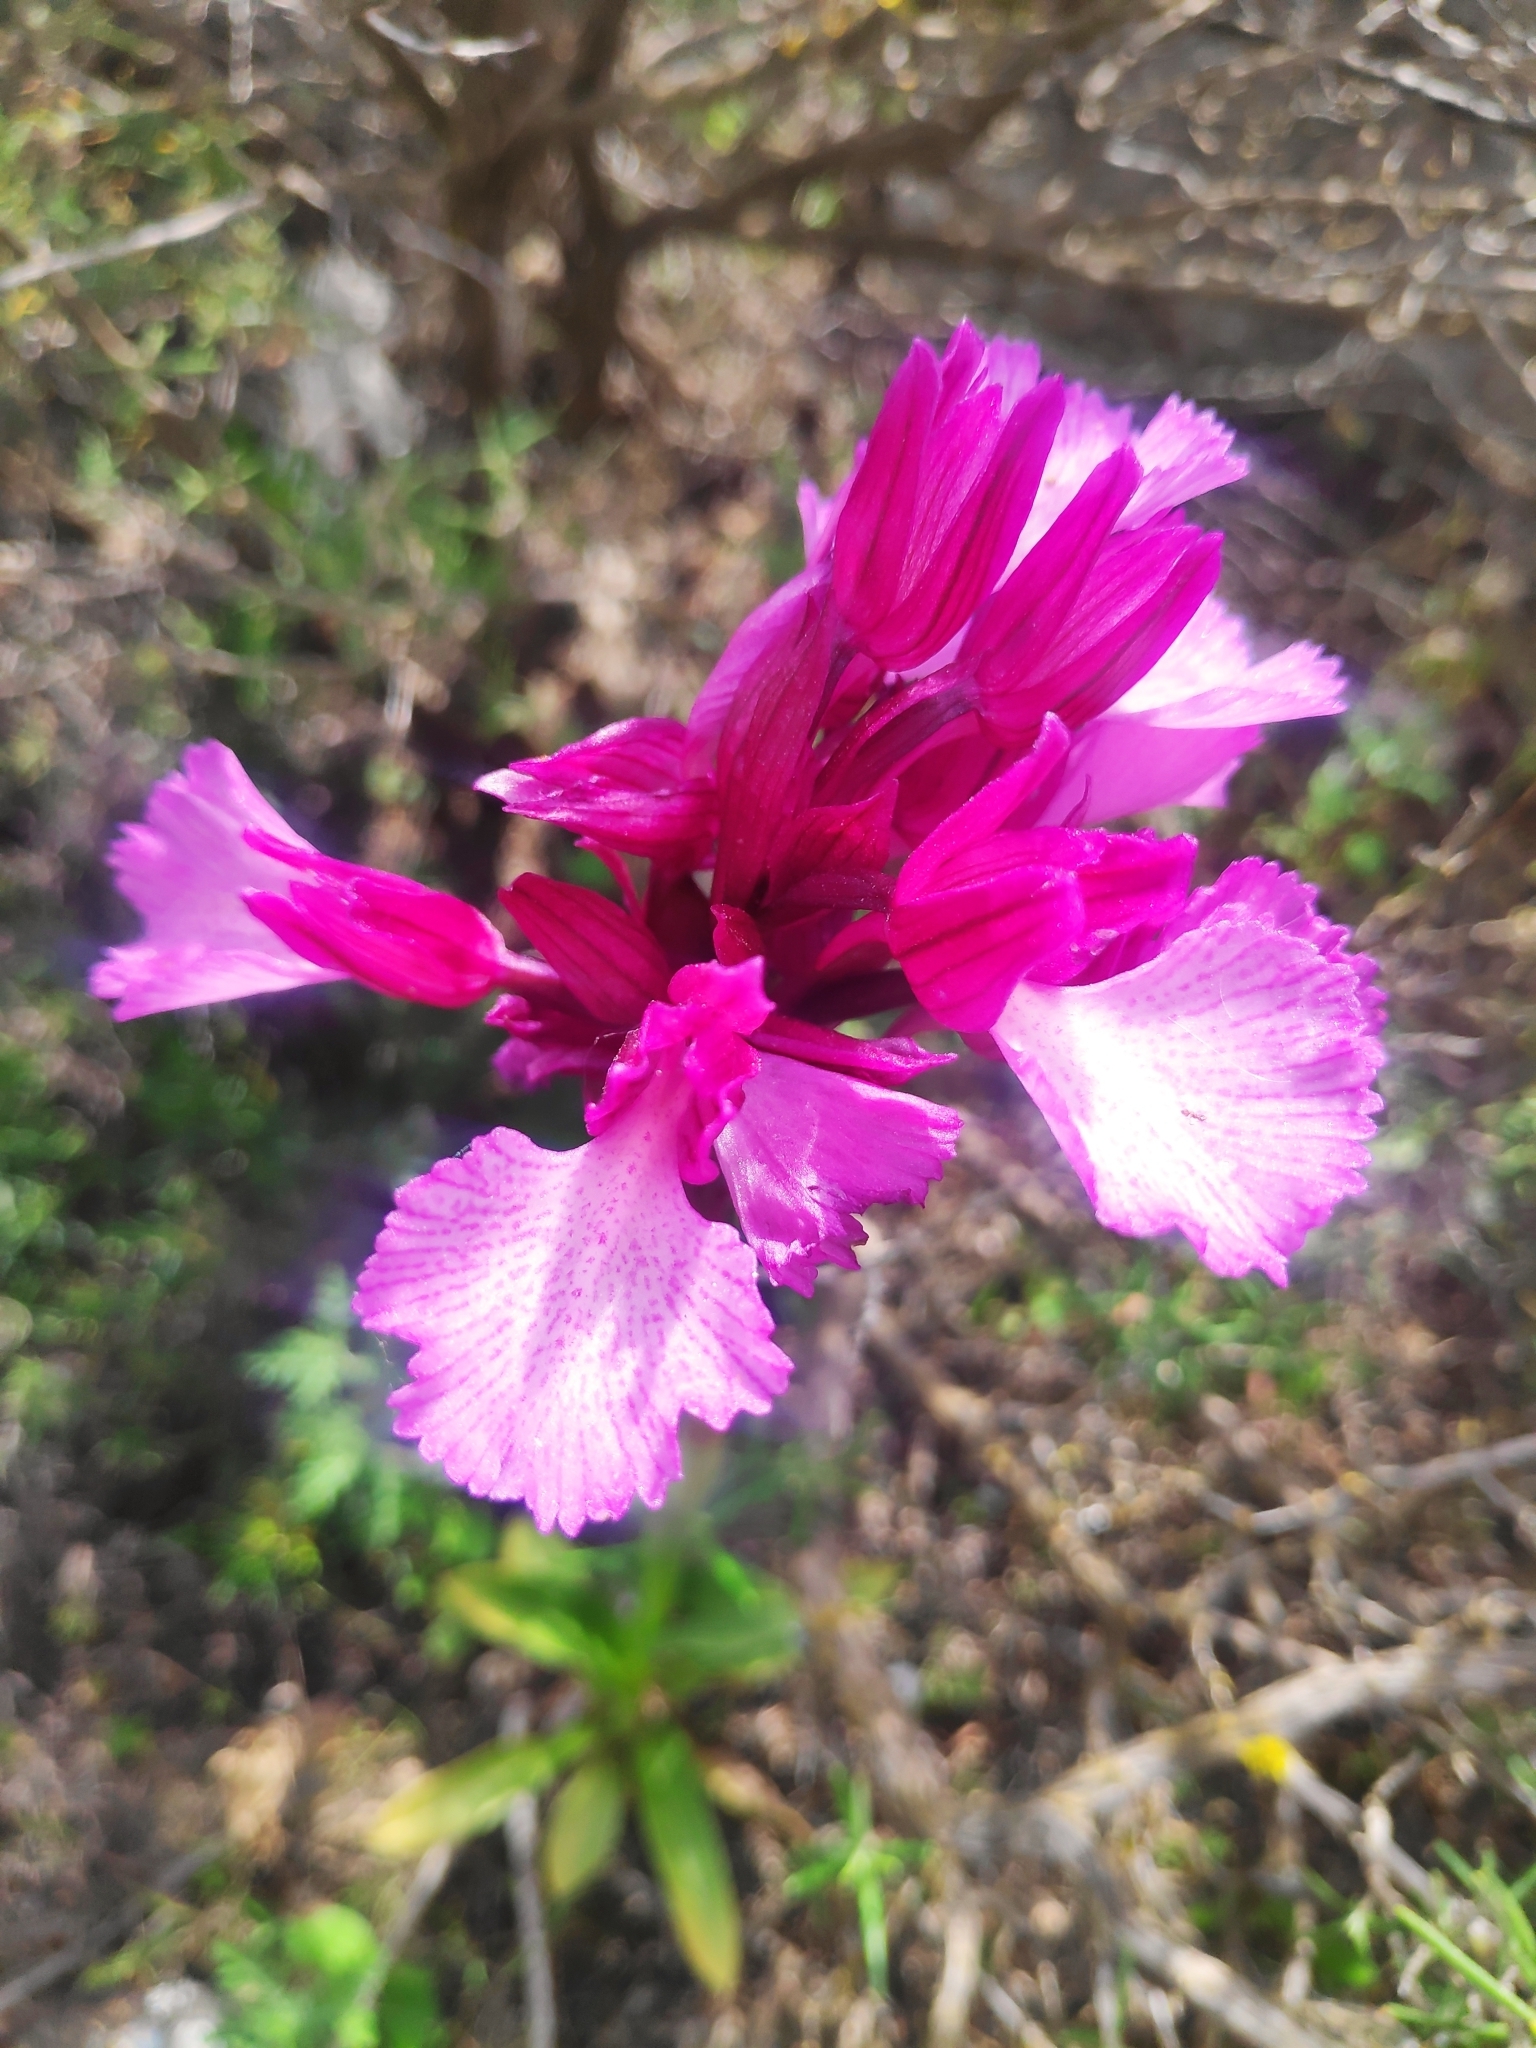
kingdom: Plantae
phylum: Tracheophyta
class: Liliopsida
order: Asparagales
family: Orchidaceae
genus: Anacamptis
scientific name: Anacamptis papilionacea
